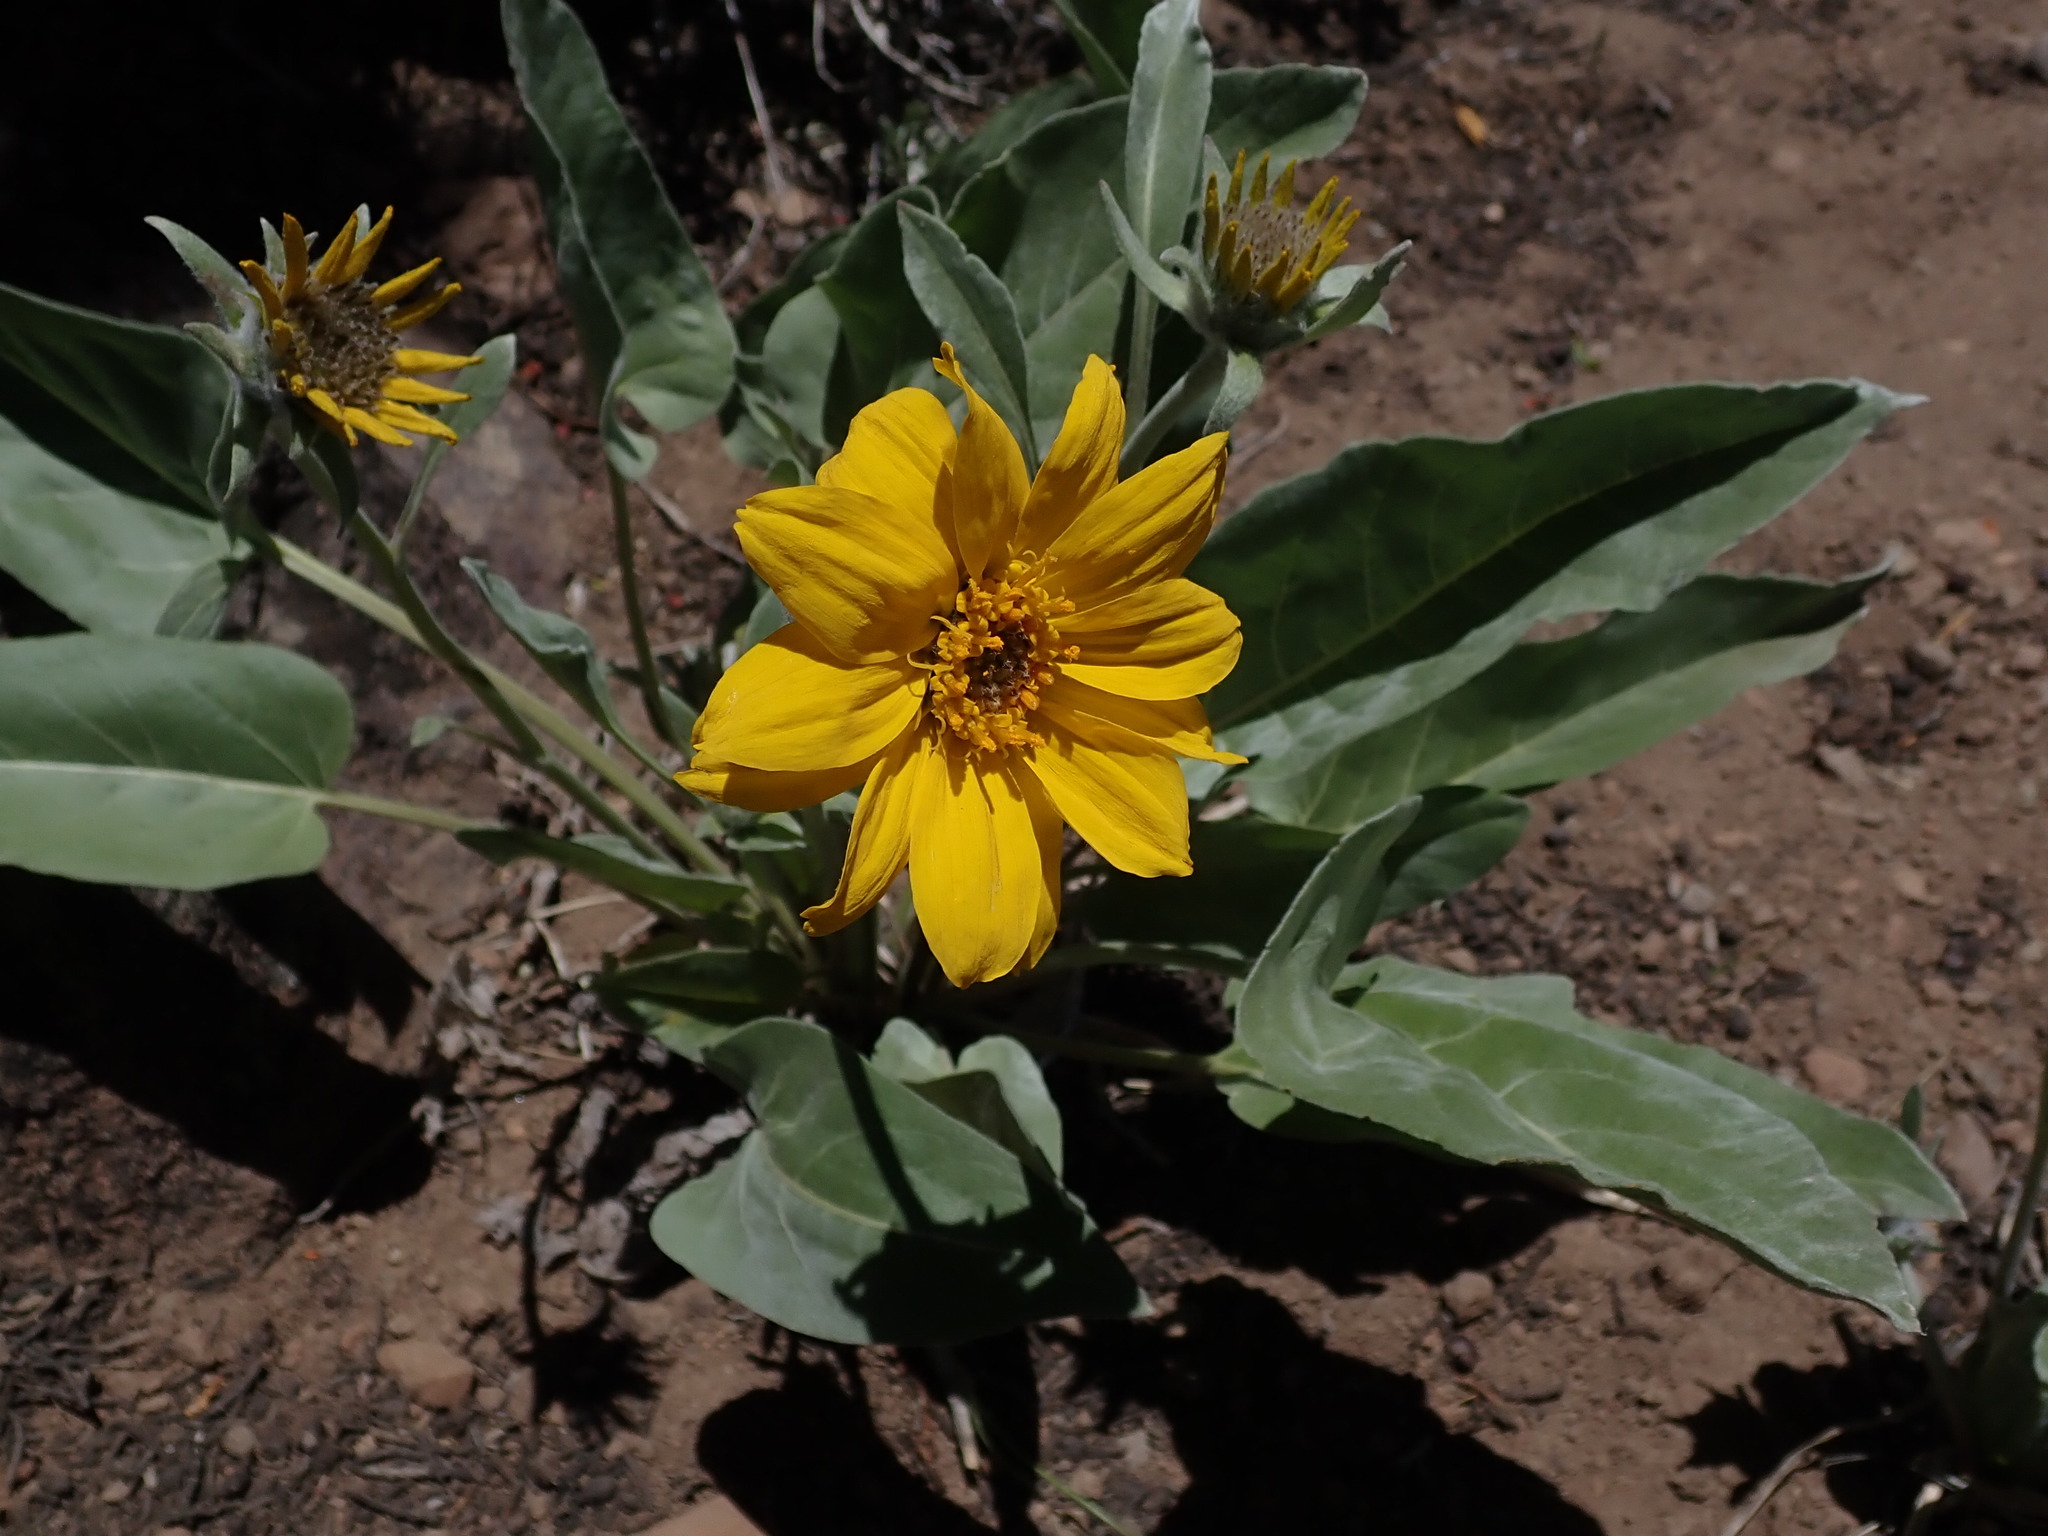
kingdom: Plantae
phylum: Tracheophyta
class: Magnoliopsida
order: Asterales
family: Asteraceae
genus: Wyethia
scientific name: Wyethia sagittata
